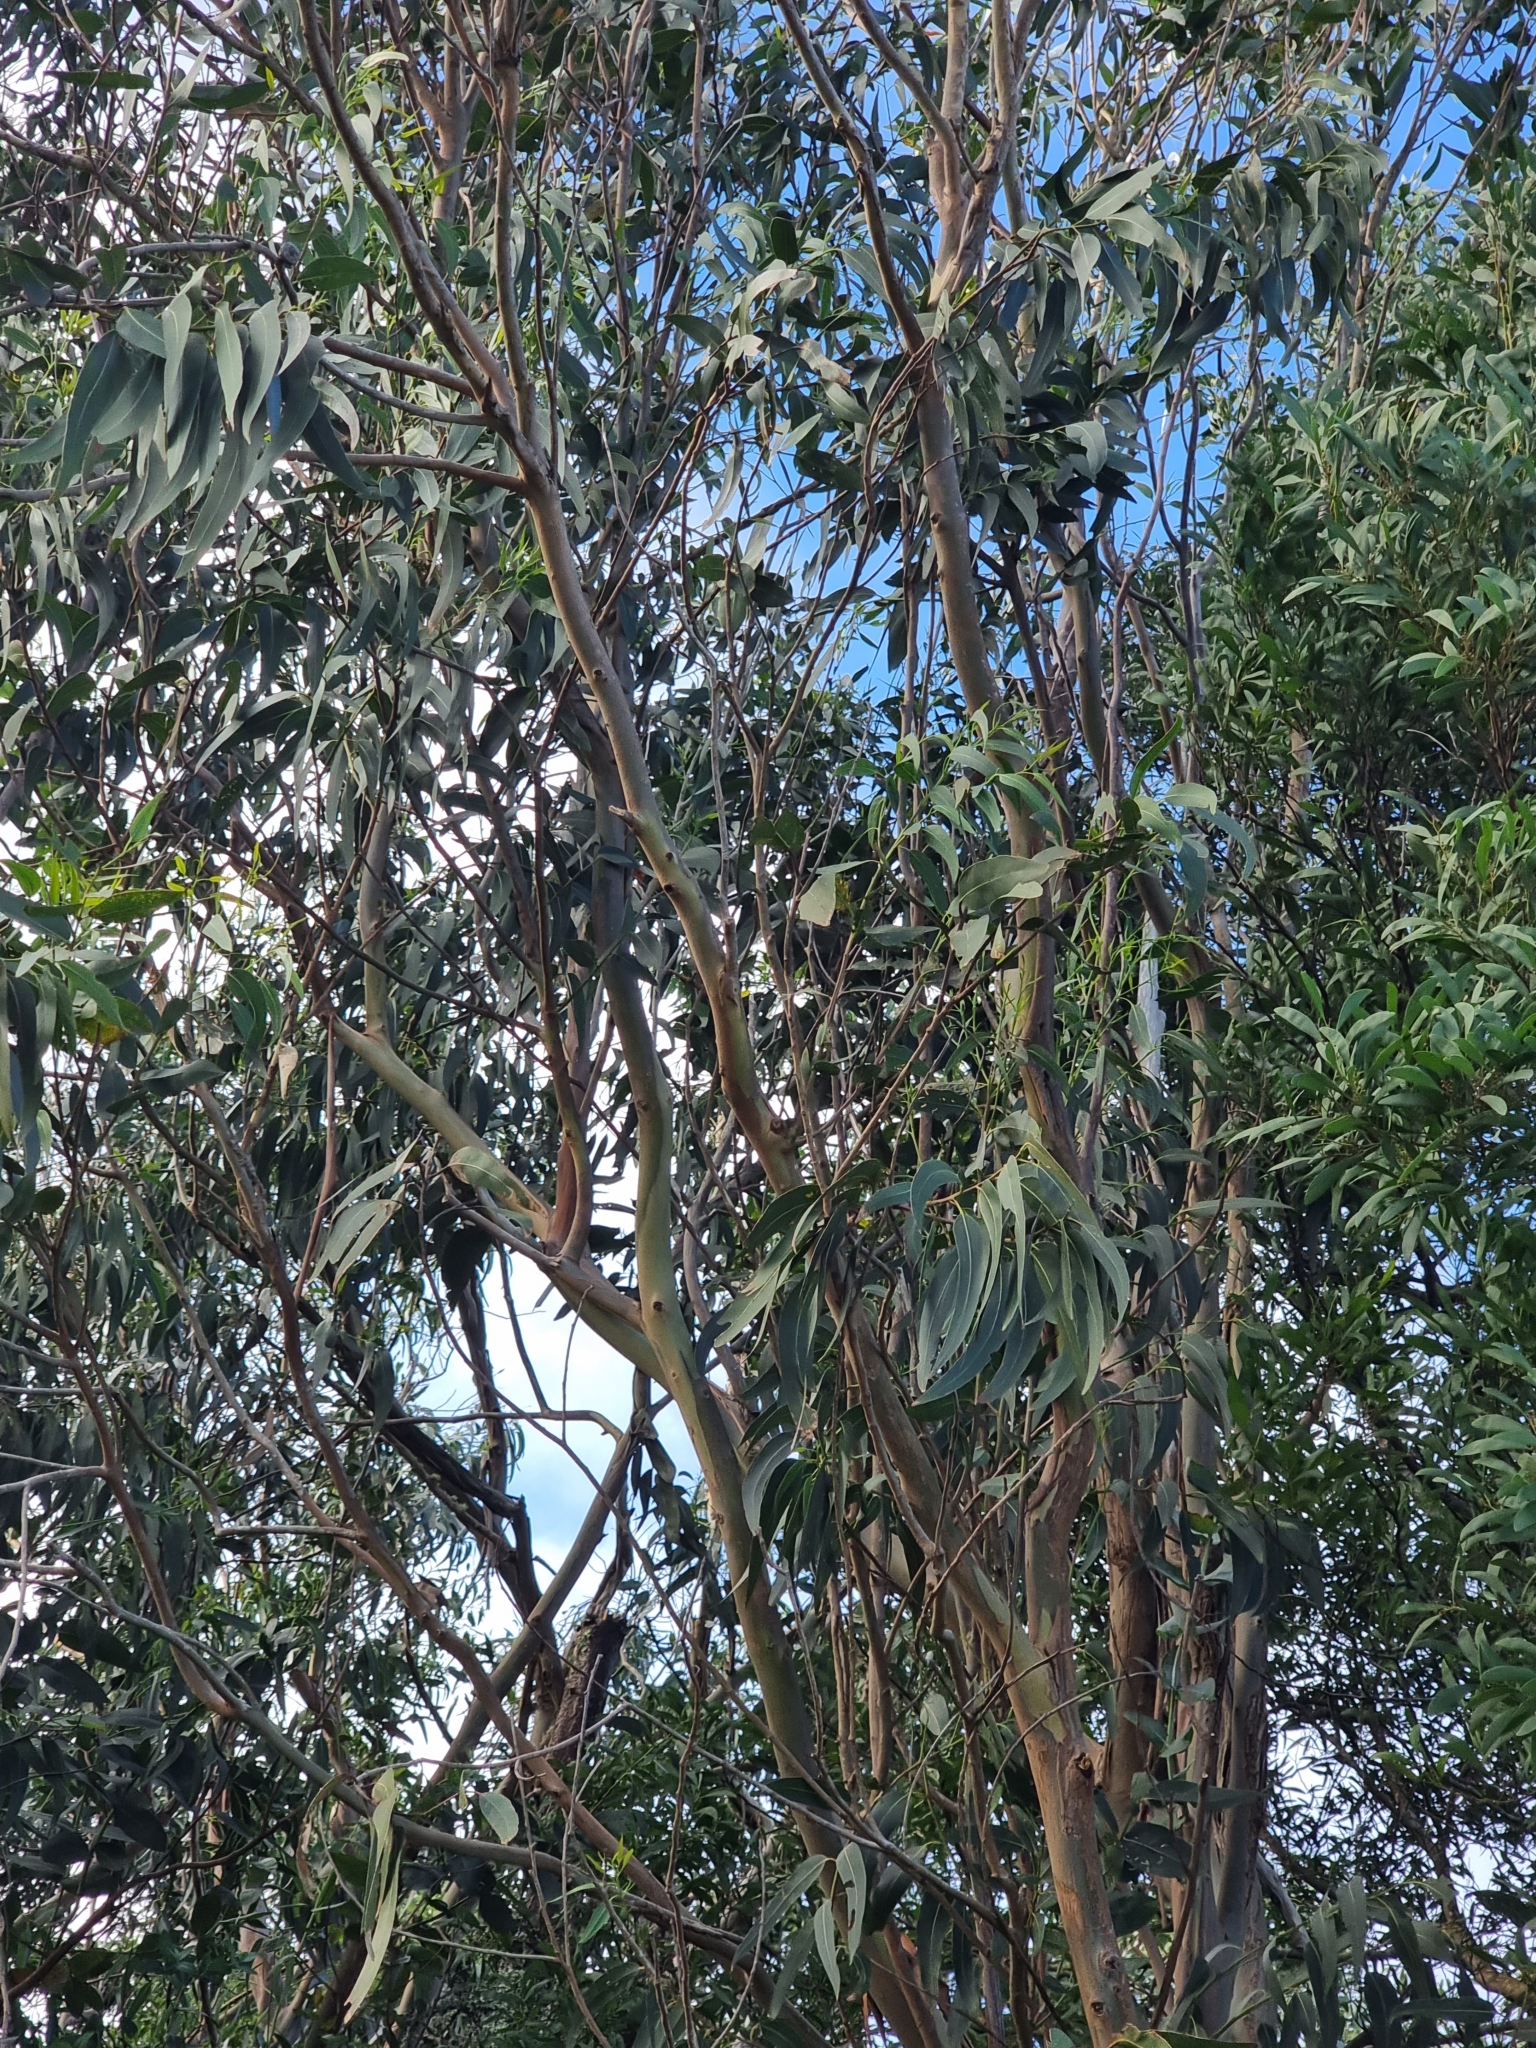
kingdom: Plantae
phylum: Tracheophyta
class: Magnoliopsida
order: Myrtales
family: Myrtaceae
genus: Eucalyptus
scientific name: Eucalyptus globulus
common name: Southern blue-gum
